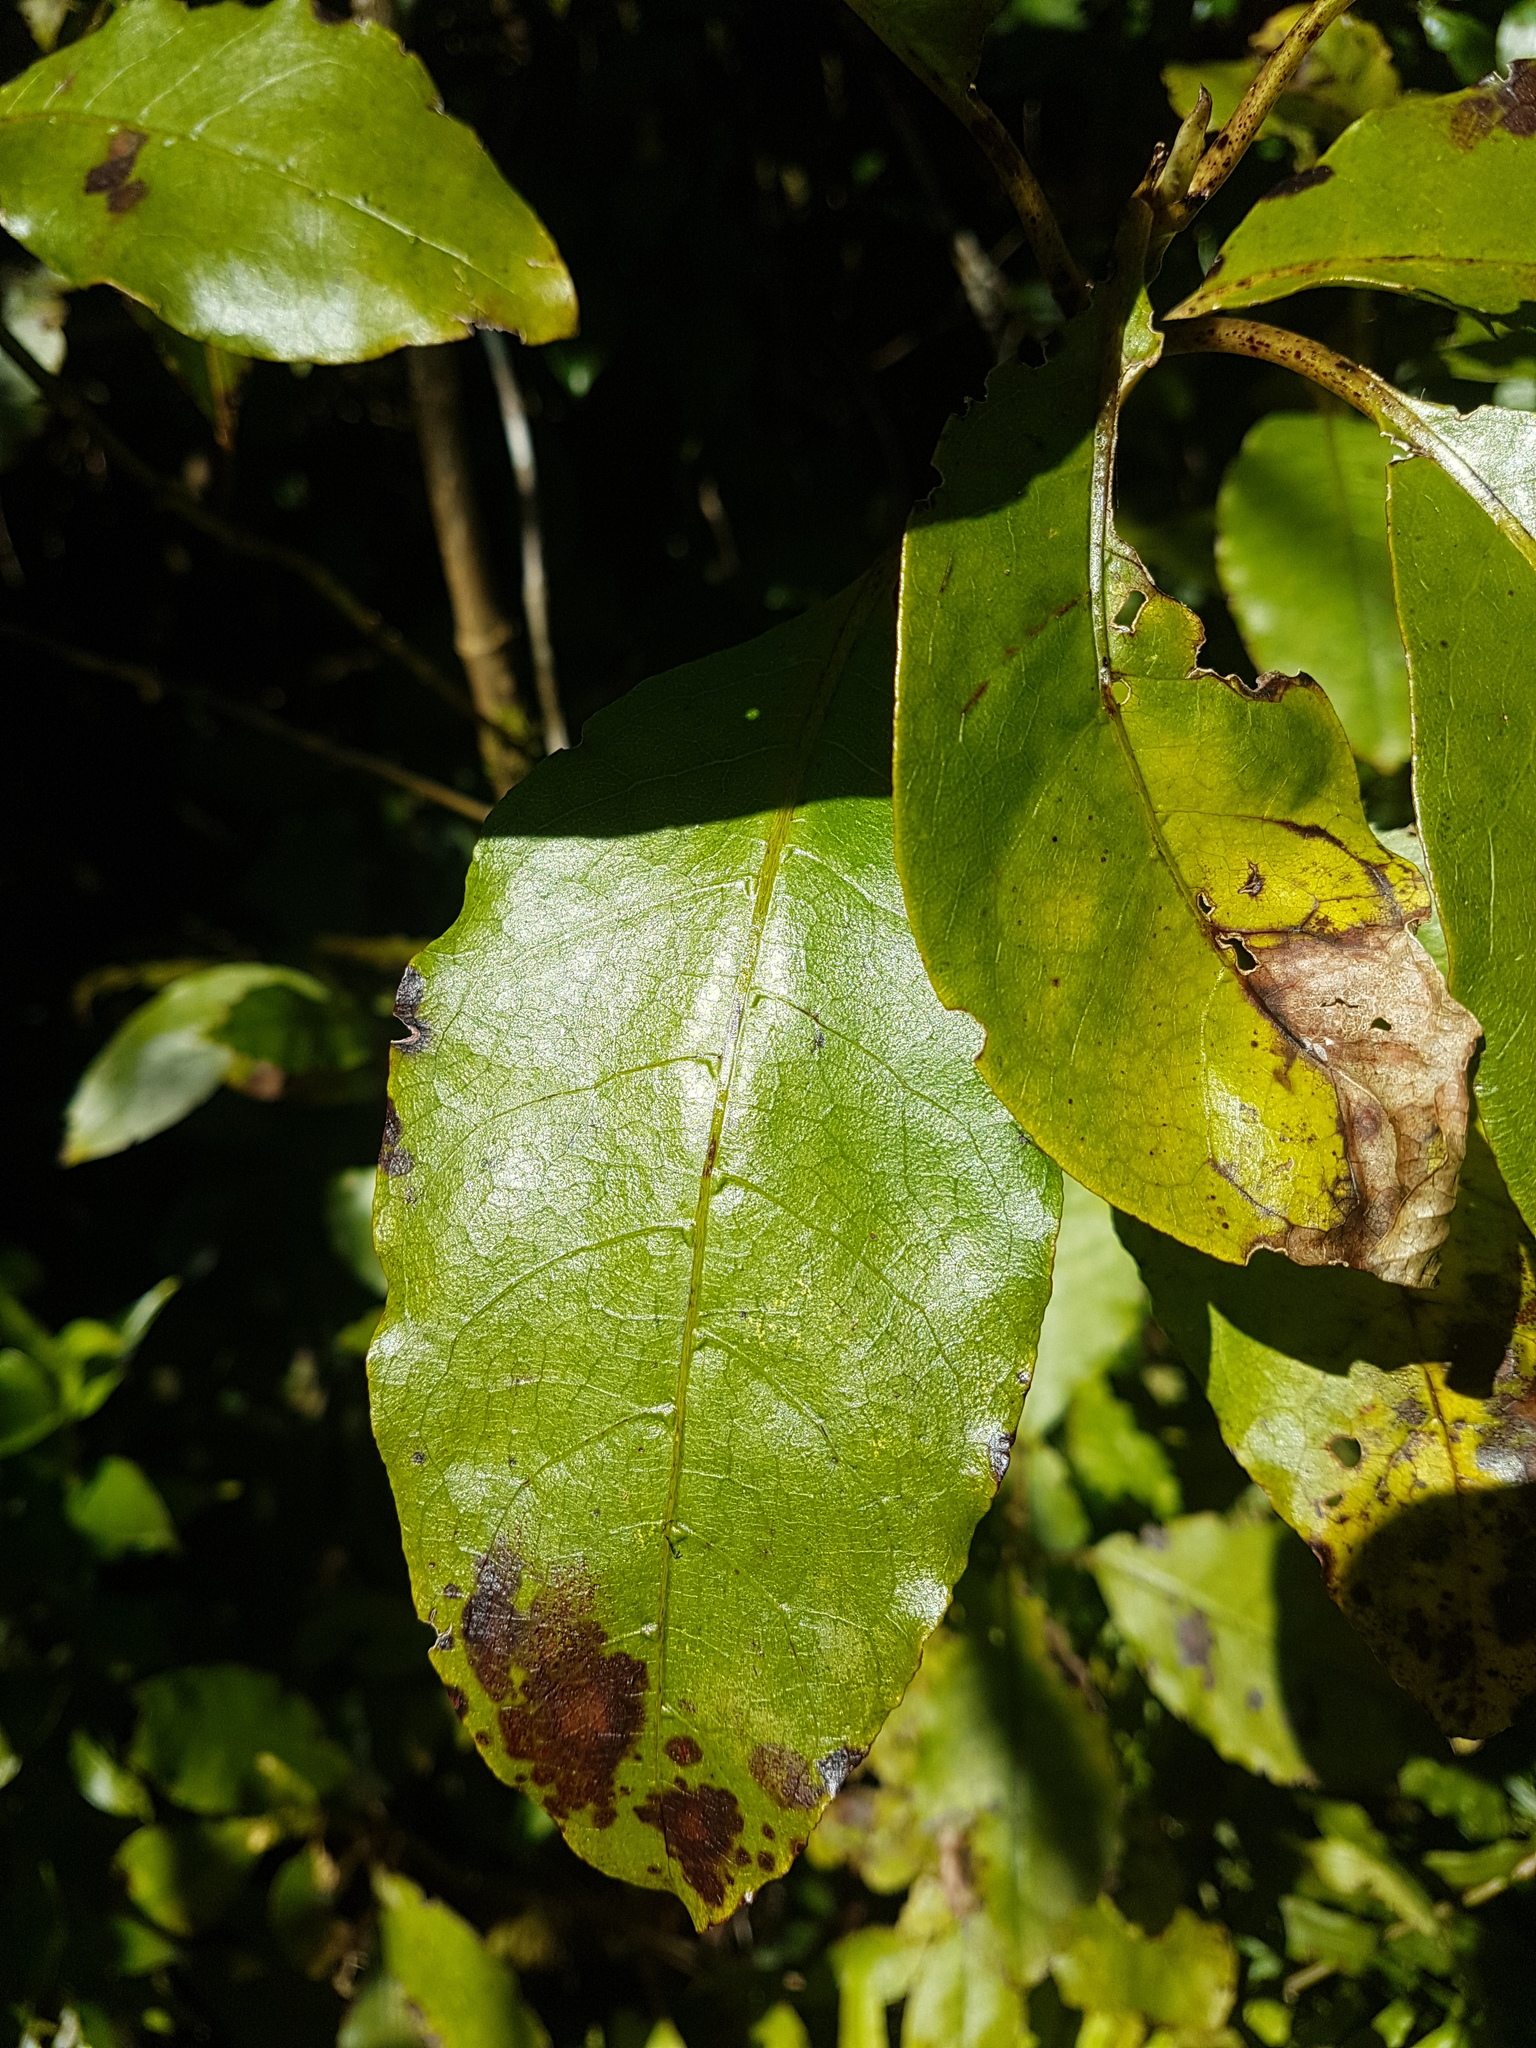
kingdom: Plantae
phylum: Tracheophyta
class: Magnoliopsida
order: Gentianales
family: Rubiaceae
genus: Coprosma
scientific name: Coprosma autumnalis
